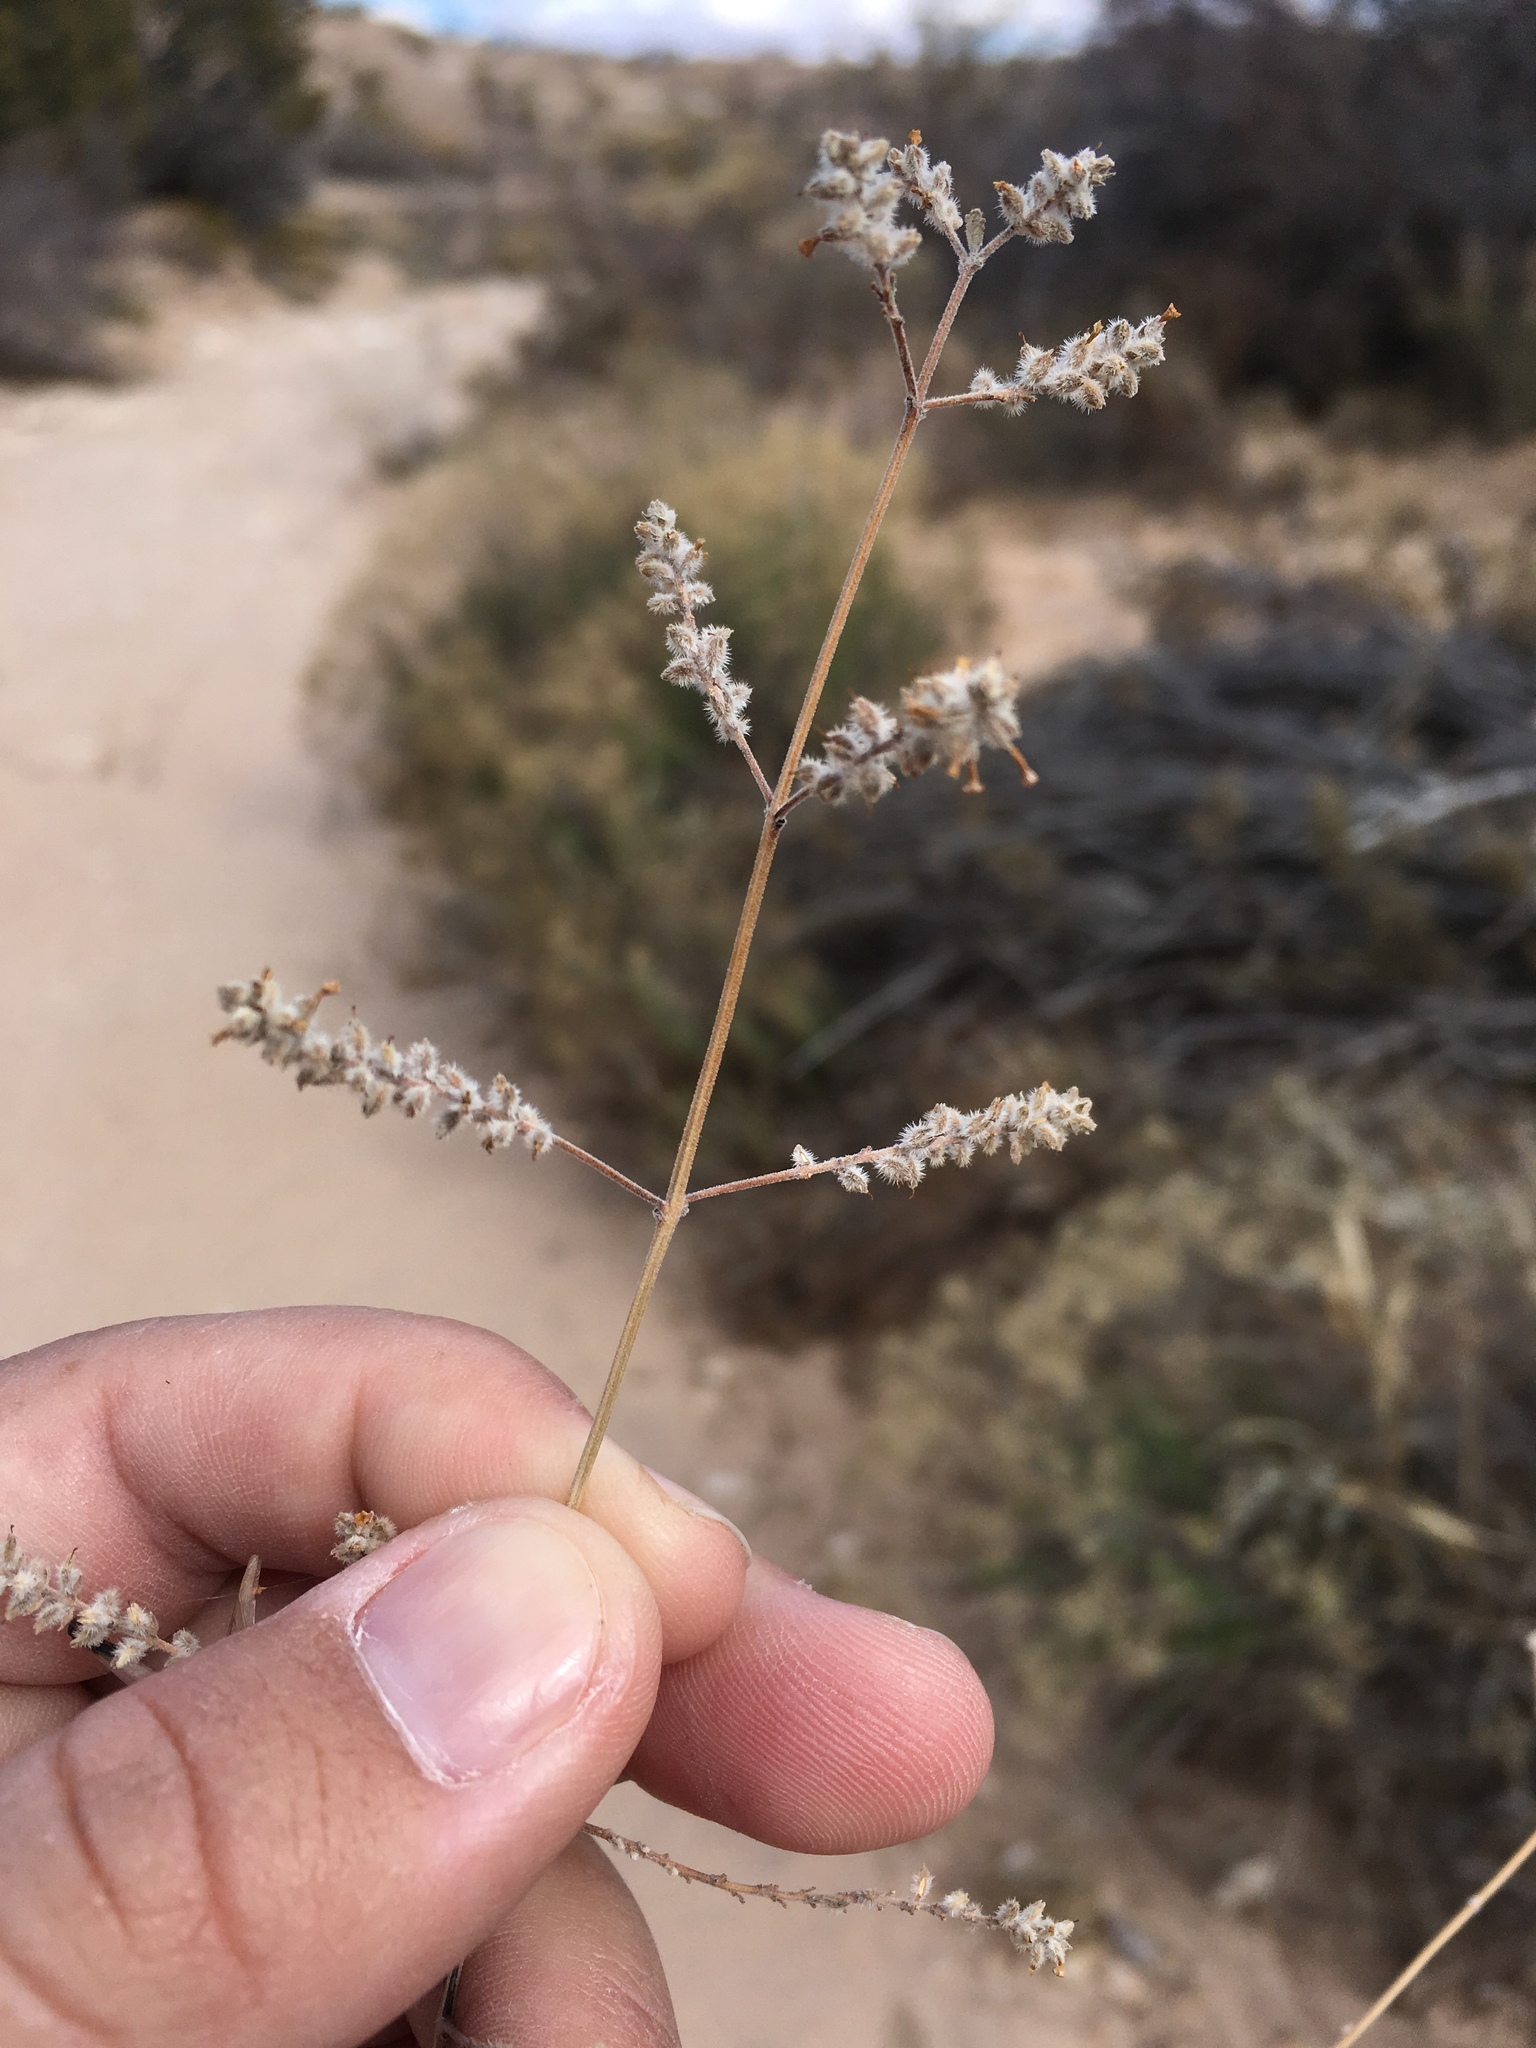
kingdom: Plantae
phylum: Tracheophyta
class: Magnoliopsida
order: Lamiales
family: Verbenaceae
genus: Aloysia
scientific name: Aloysia wrightii
